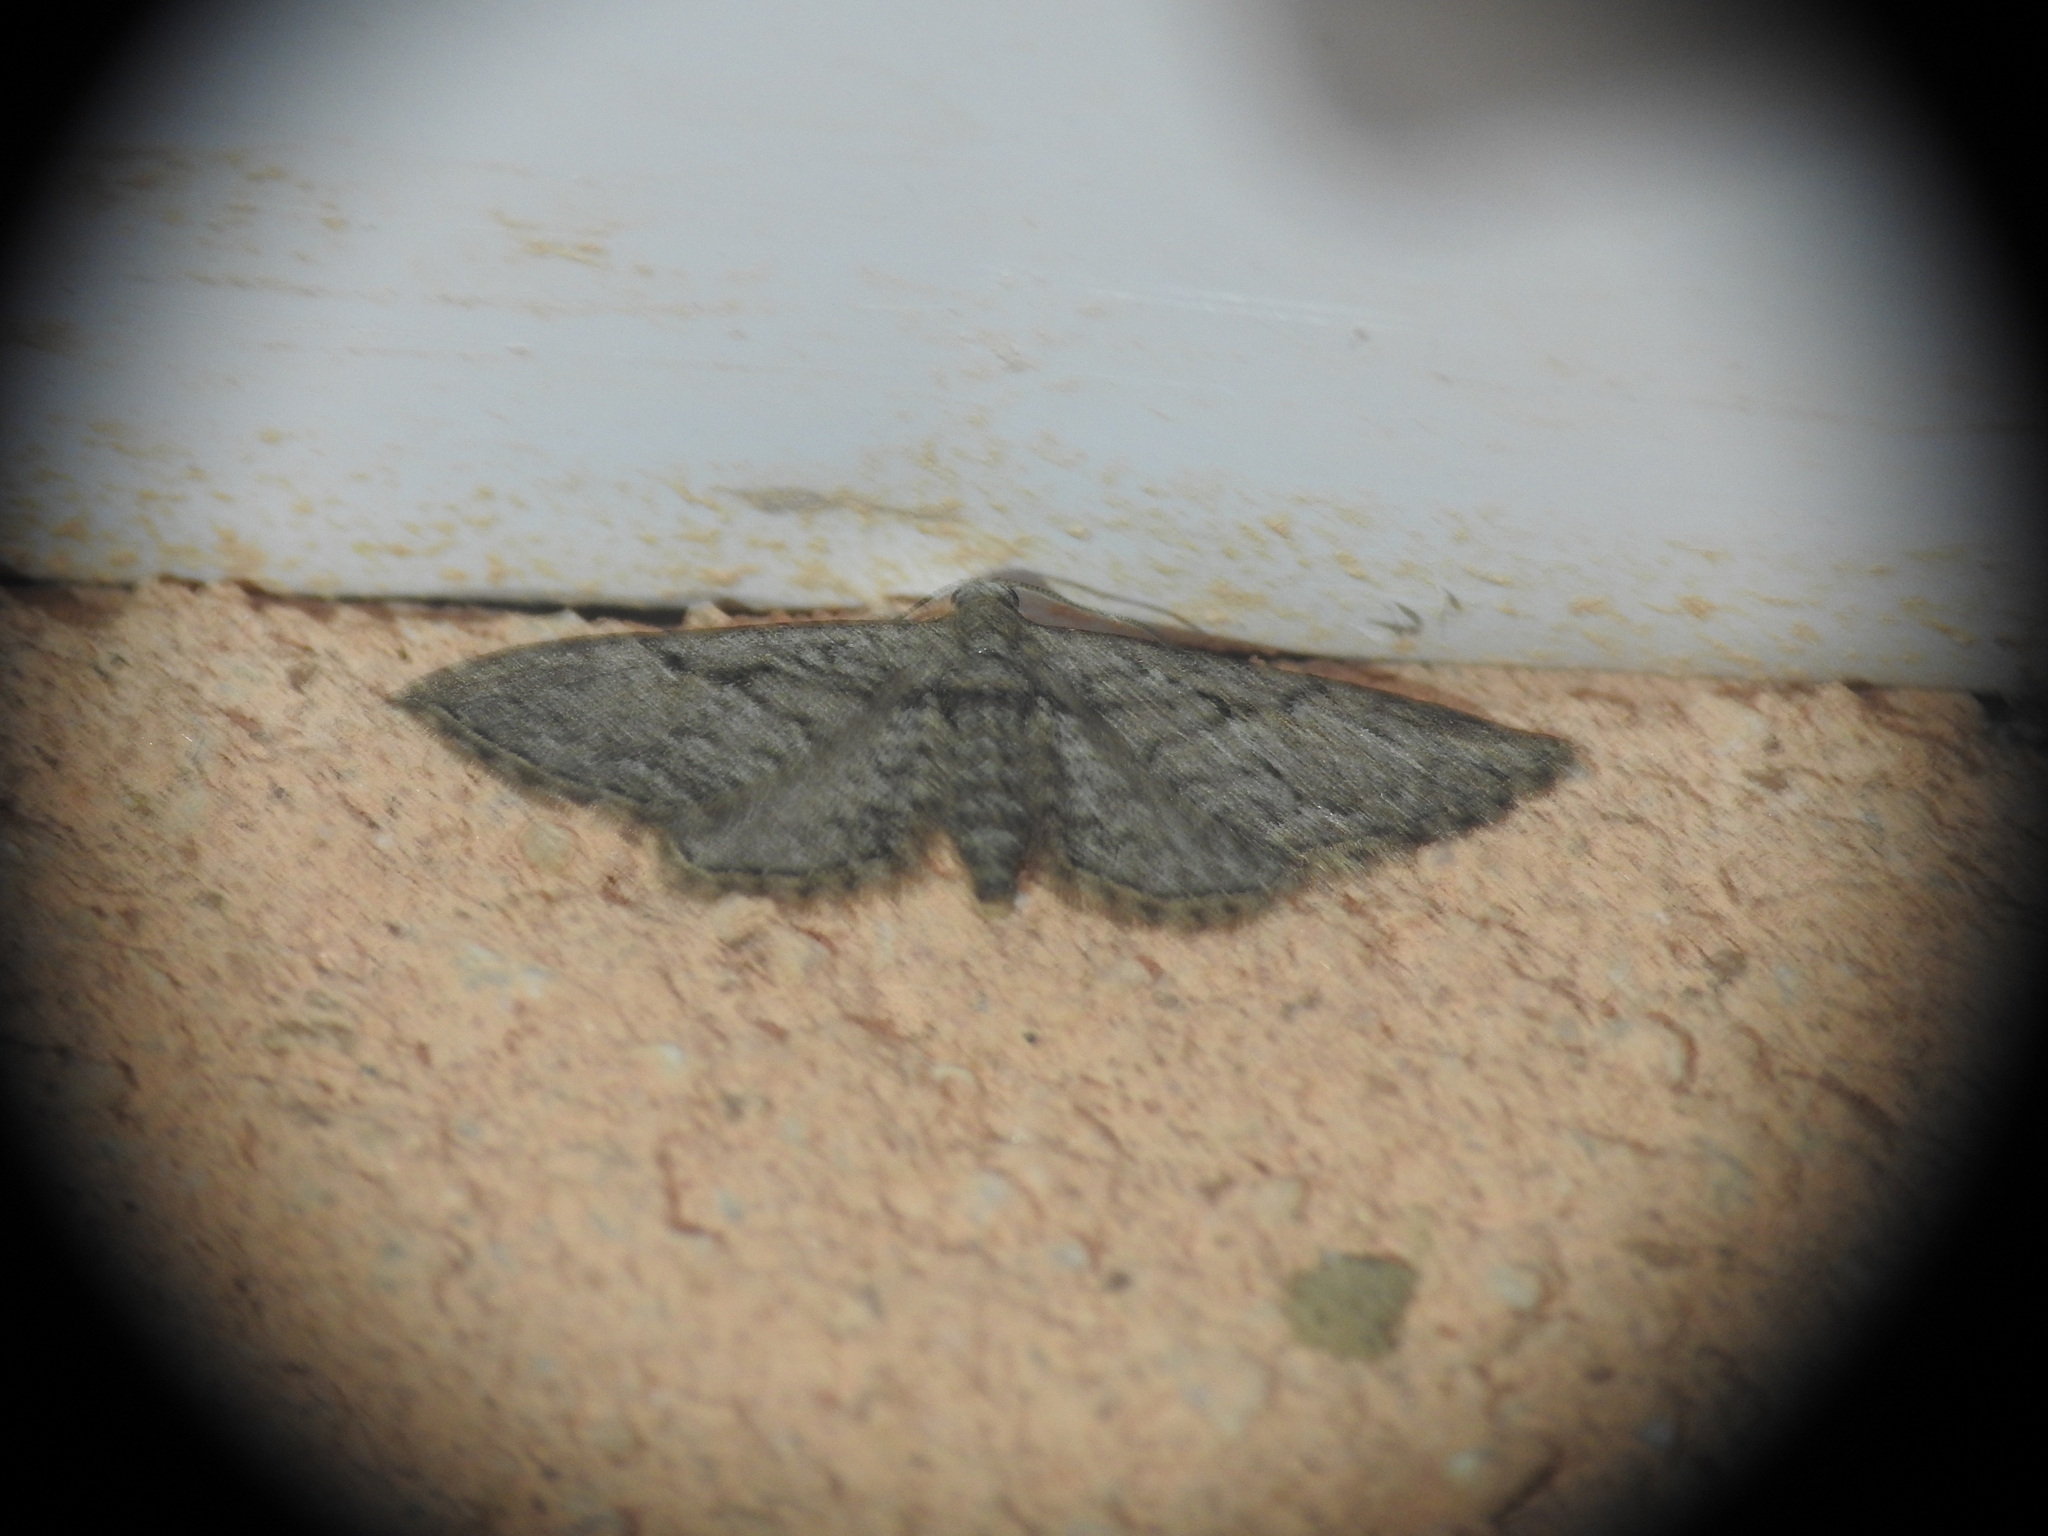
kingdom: Animalia
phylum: Arthropoda
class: Insecta
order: Lepidoptera
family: Geometridae
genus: Eupithecia
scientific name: Eupithecia phoeniceata
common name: Cypress pug
